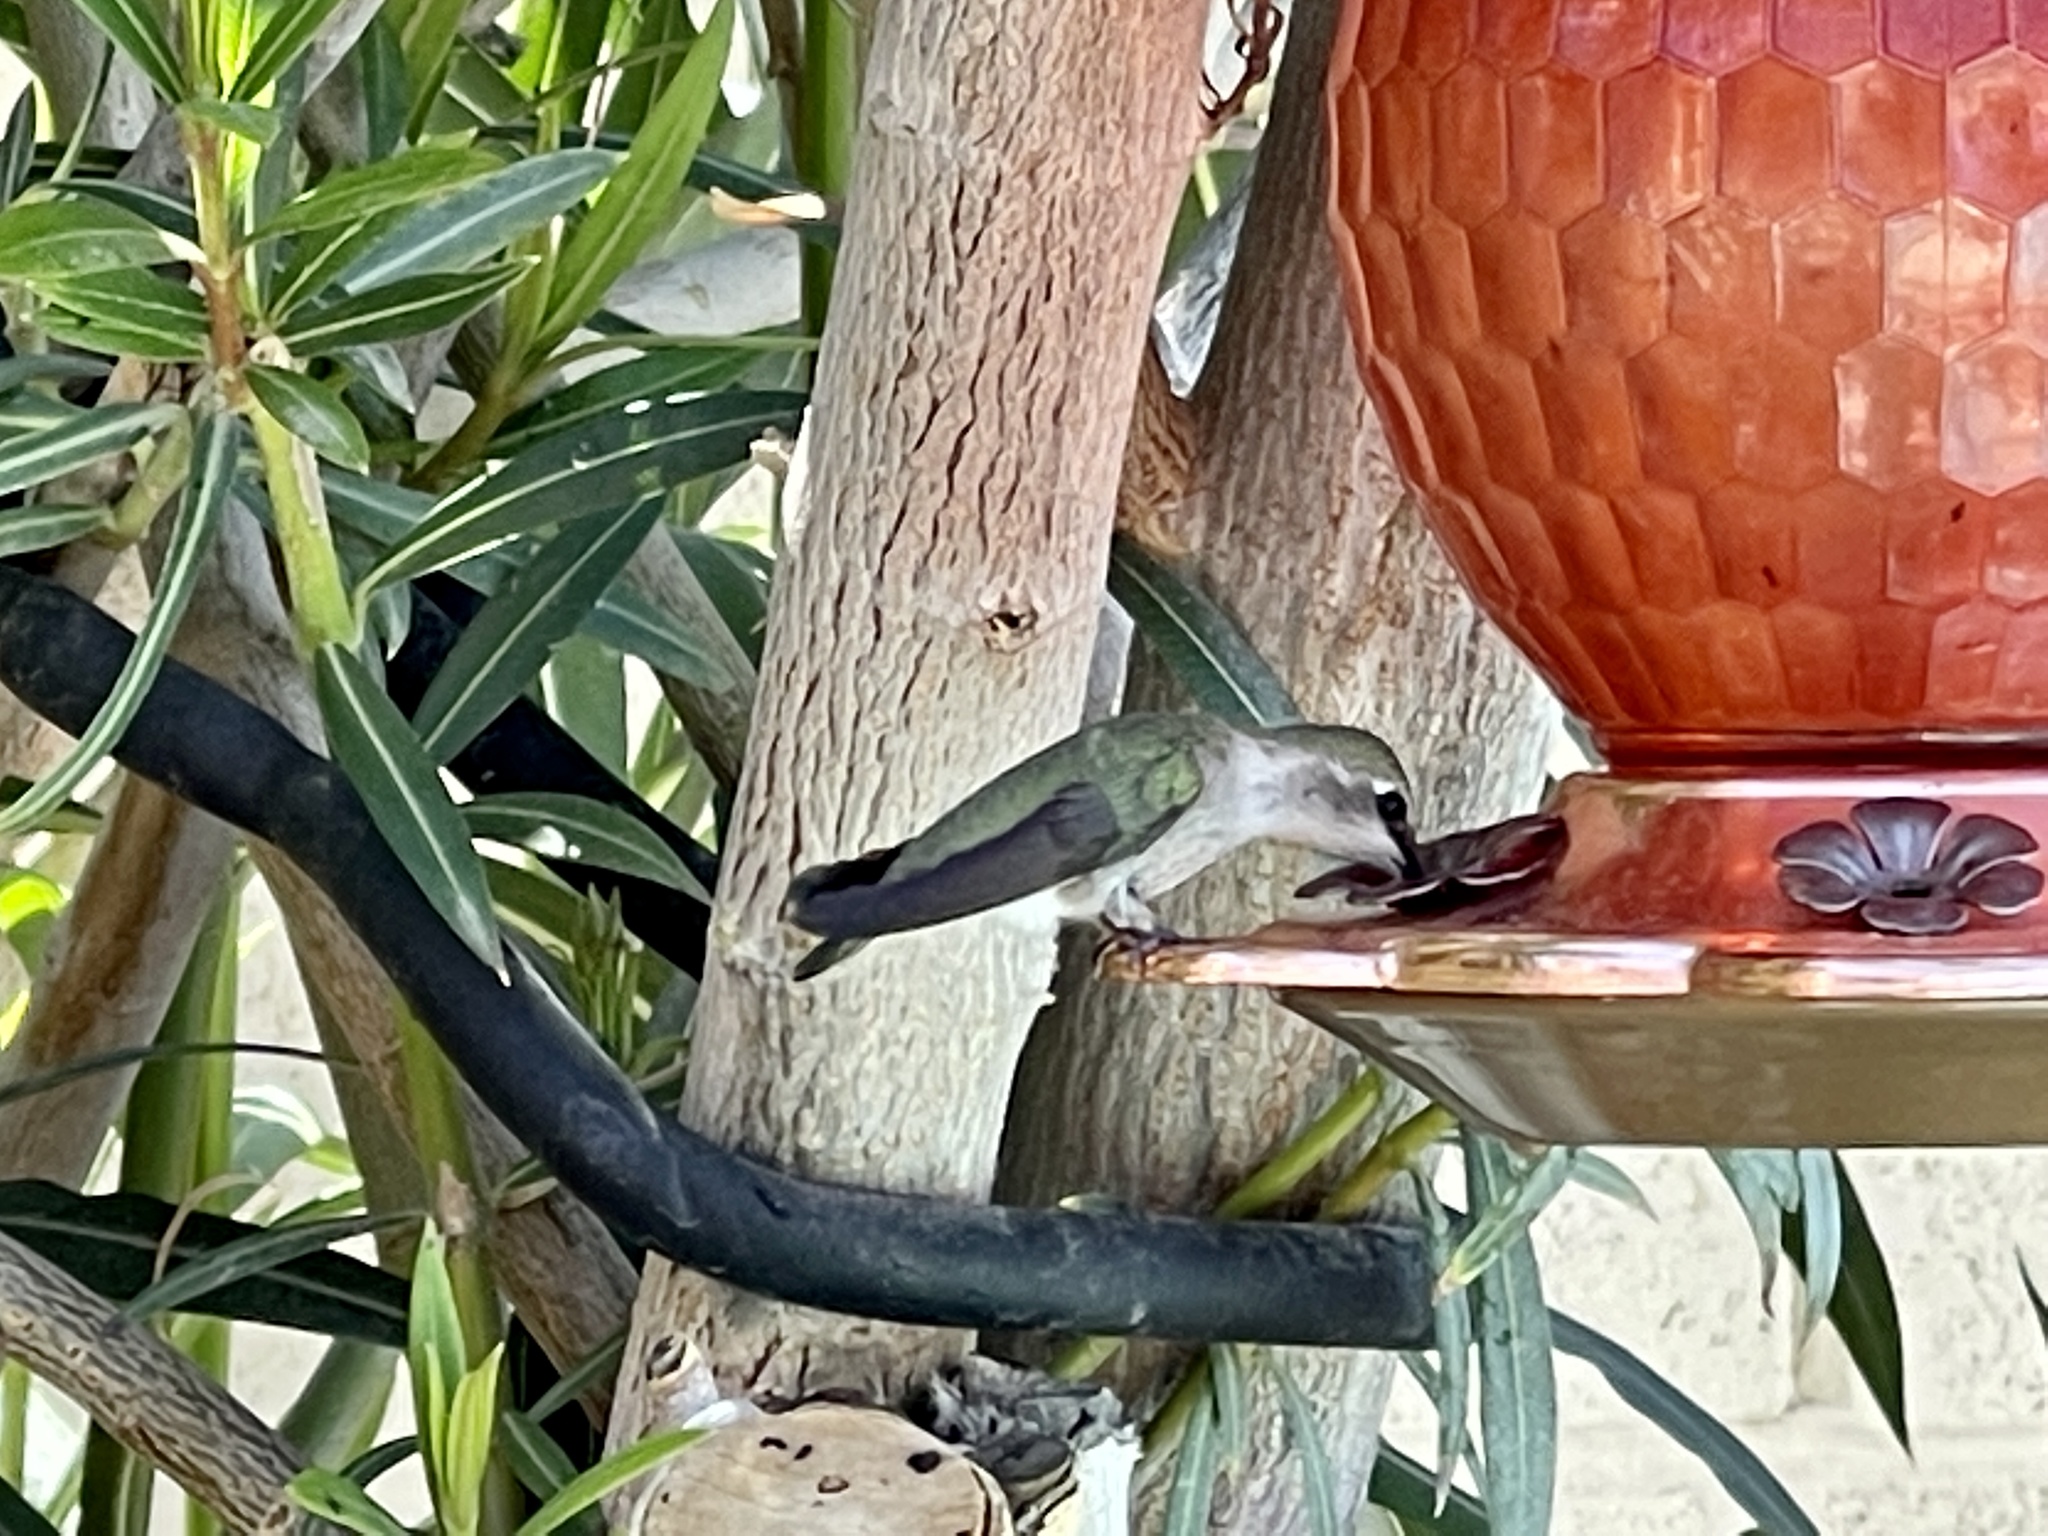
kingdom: Animalia
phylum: Chordata
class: Aves
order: Apodiformes
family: Trochilidae
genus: Calypte
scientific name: Calypte costae
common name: Costa's hummingbird
